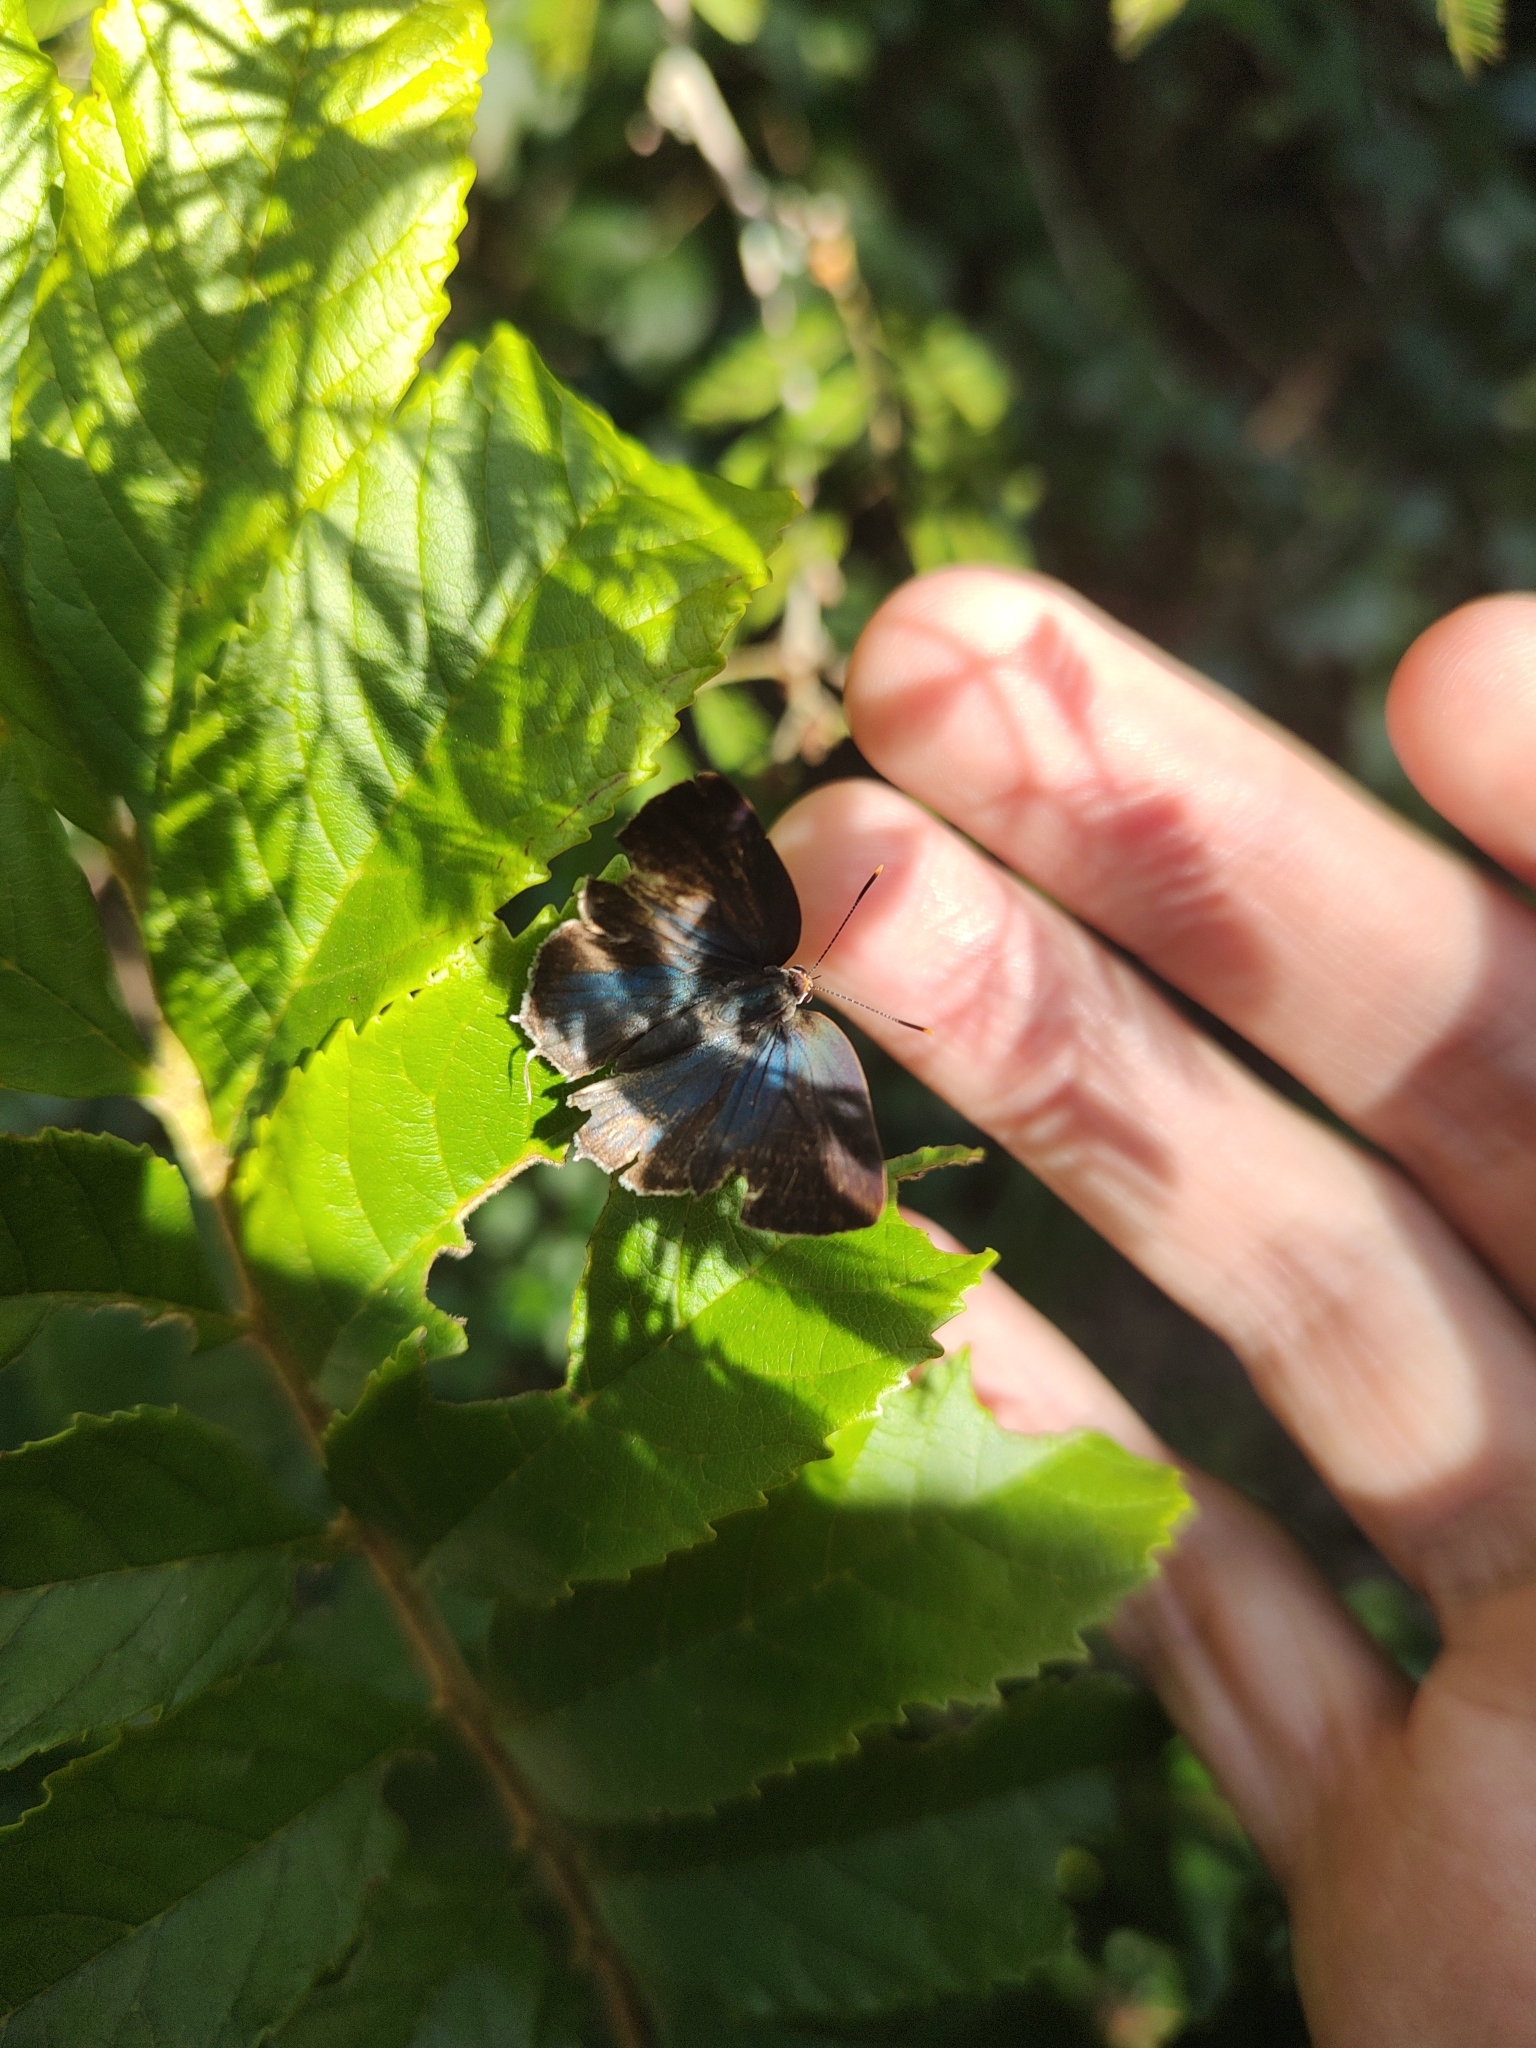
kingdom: Animalia
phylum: Arthropoda
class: Insecta
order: Lepidoptera
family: Lycaenidae
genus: Thecla
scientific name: Thecla philinna
